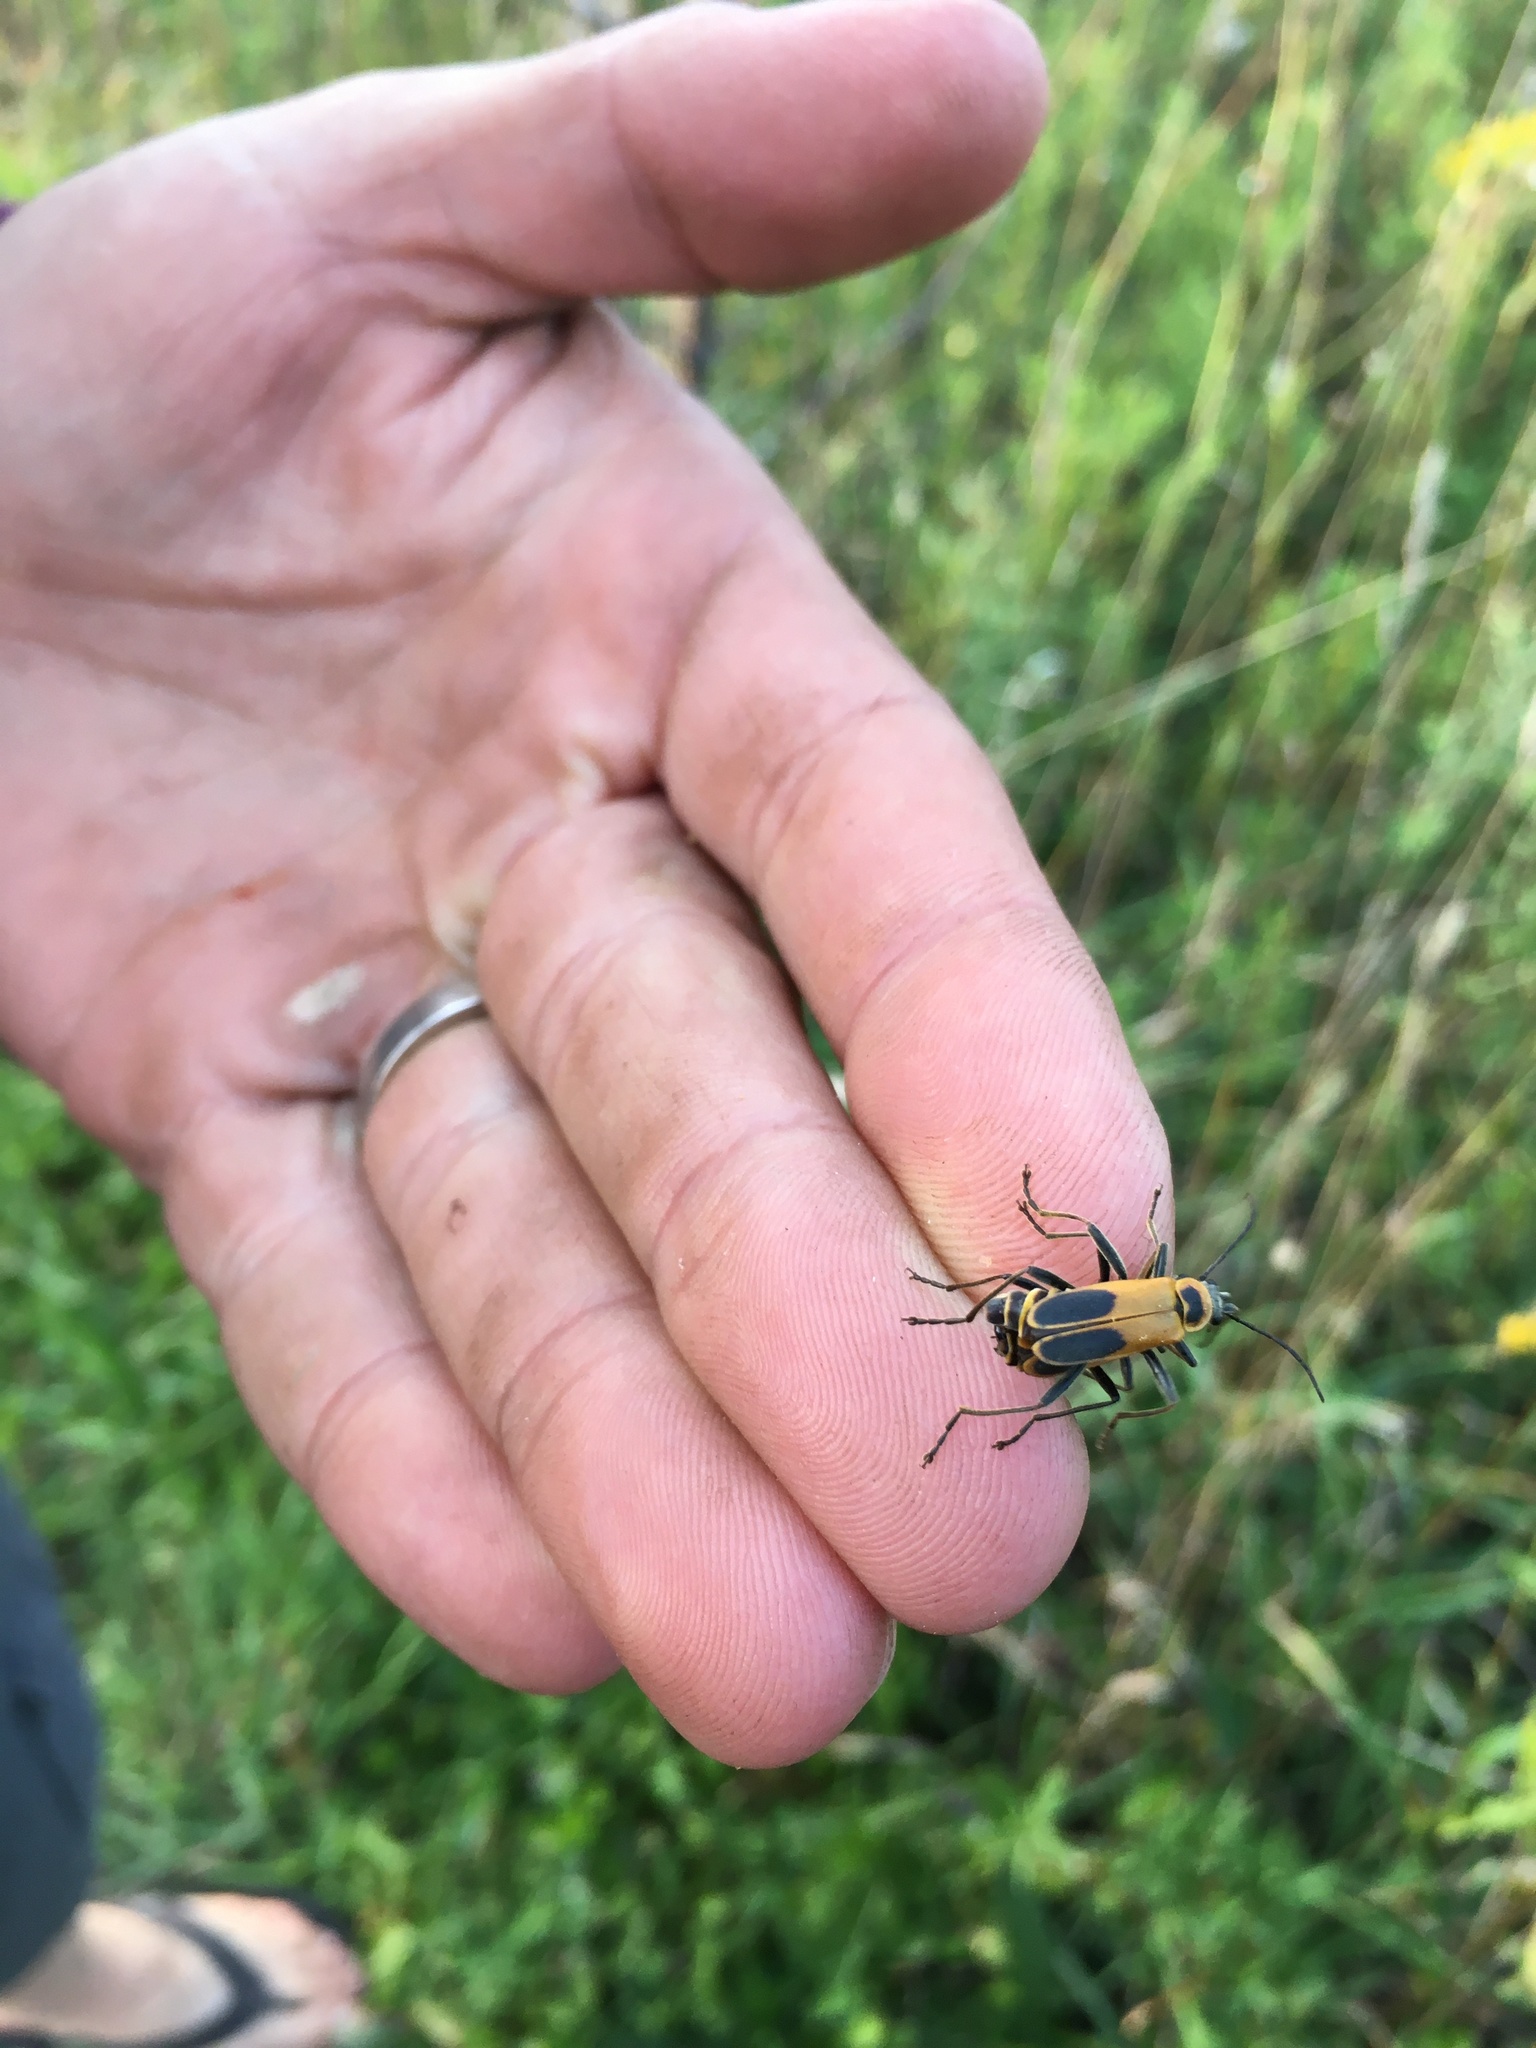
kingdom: Animalia
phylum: Arthropoda
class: Insecta
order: Coleoptera
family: Cantharidae
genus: Chauliognathus
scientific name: Chauliognathus pensylvanicus
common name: Goldenrod soldier beetle
